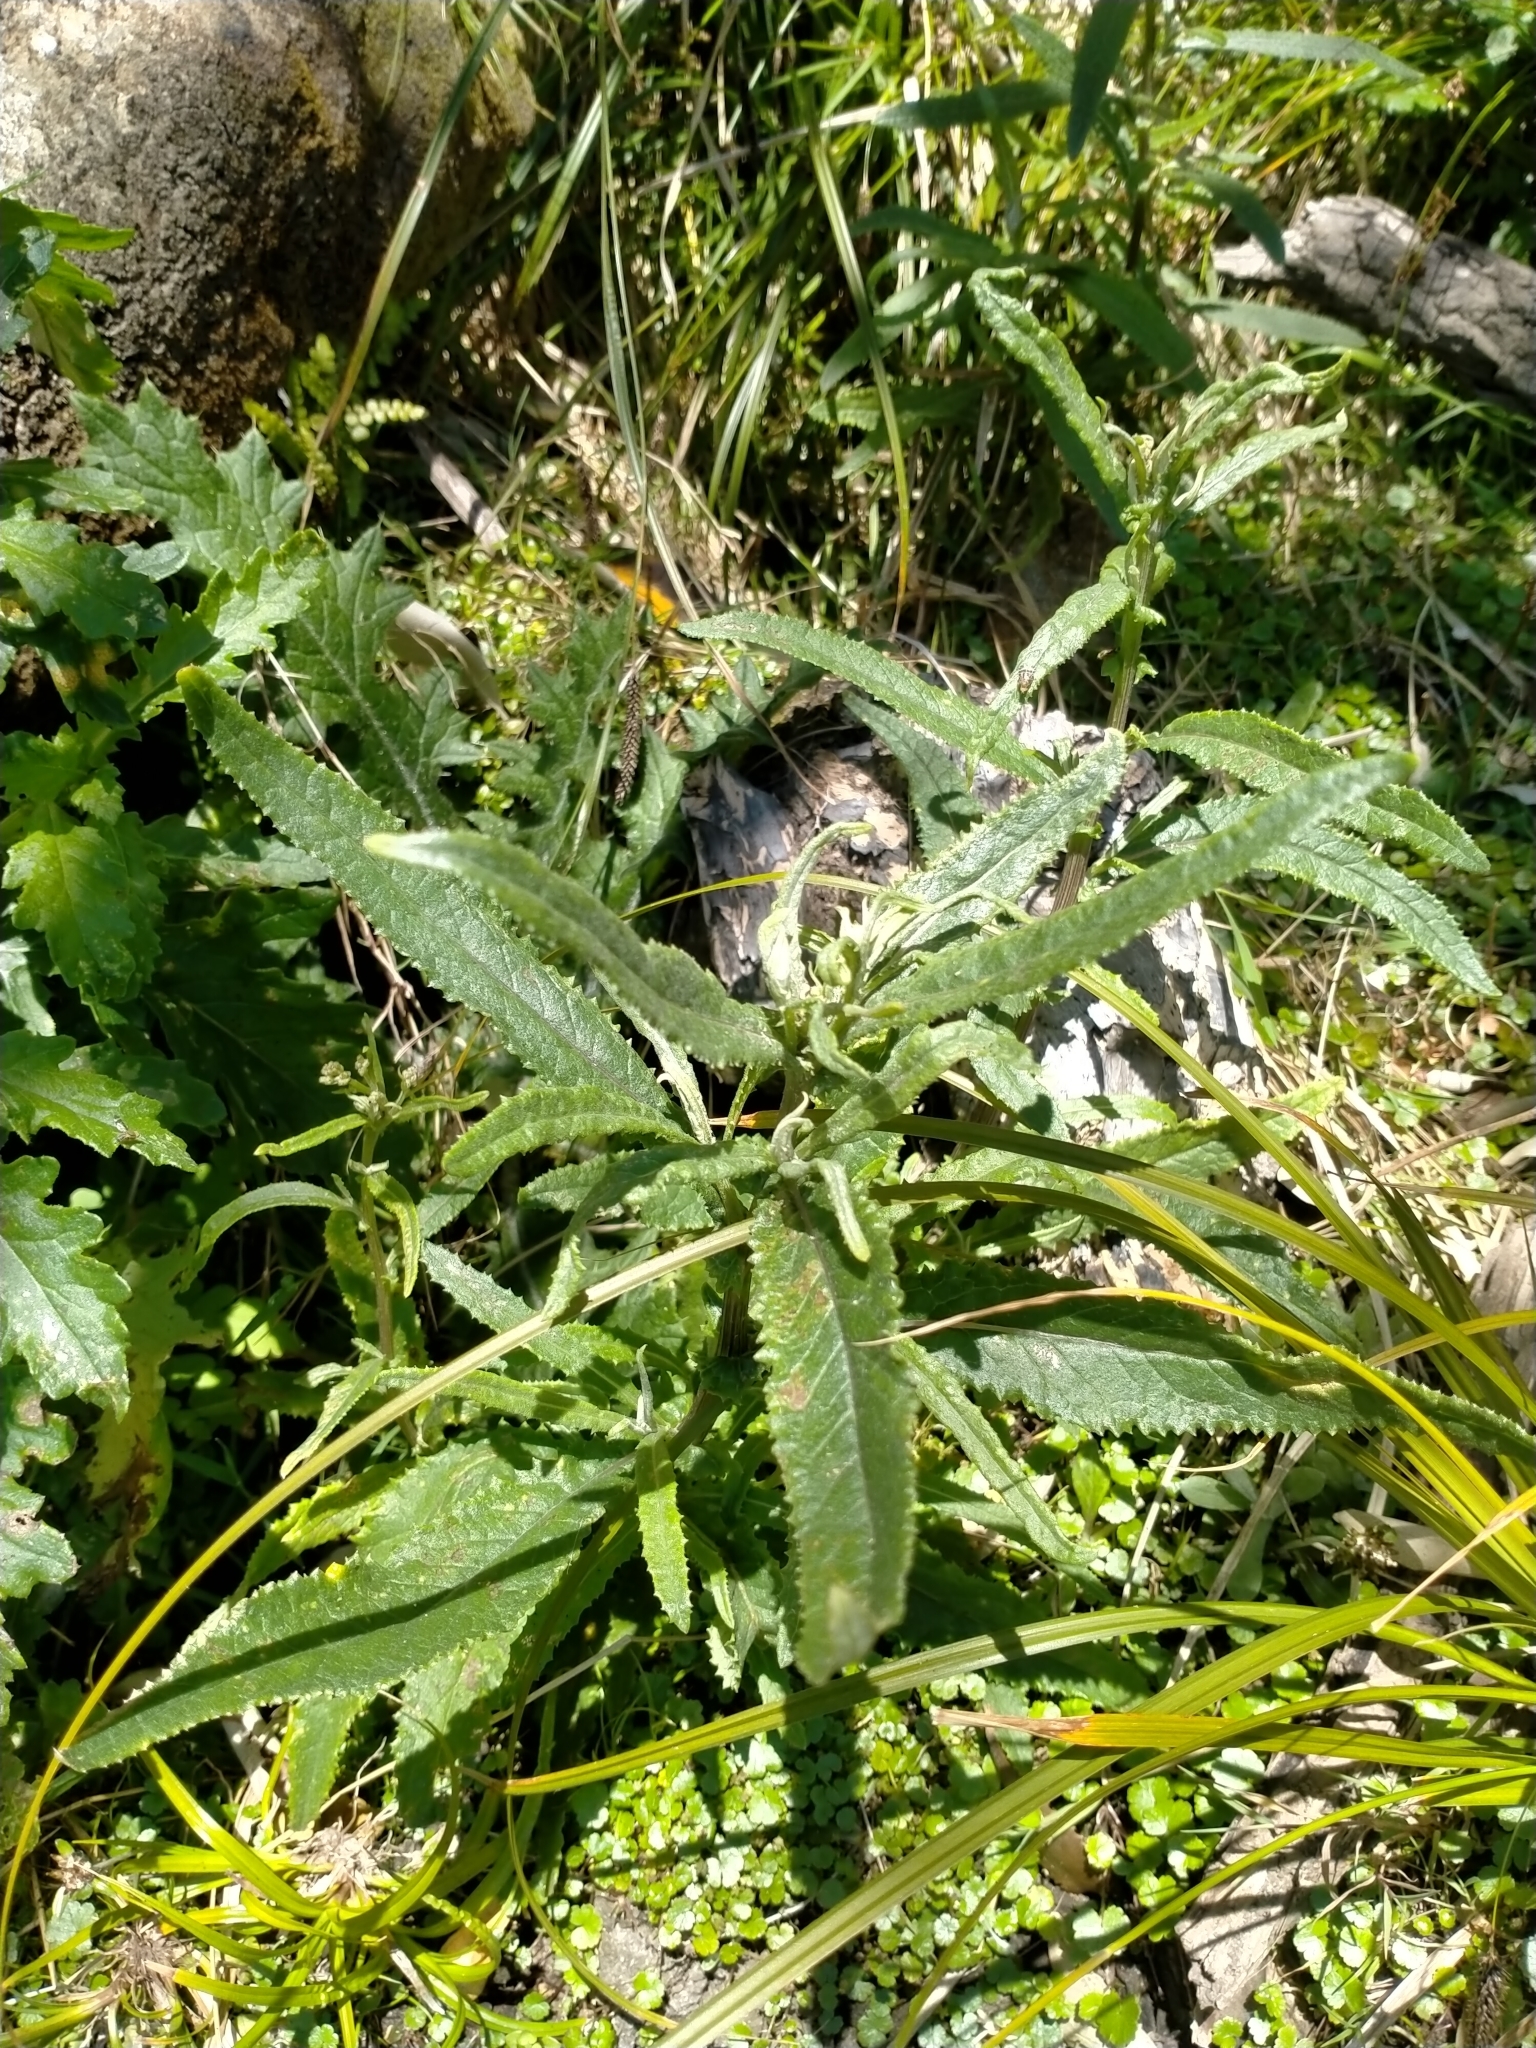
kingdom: Plantae
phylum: Tracheophyta
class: Magnoliopsida
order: Asterales
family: Asteraceae
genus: Senecio
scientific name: Senecio minimus
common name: Toothed fireweed
